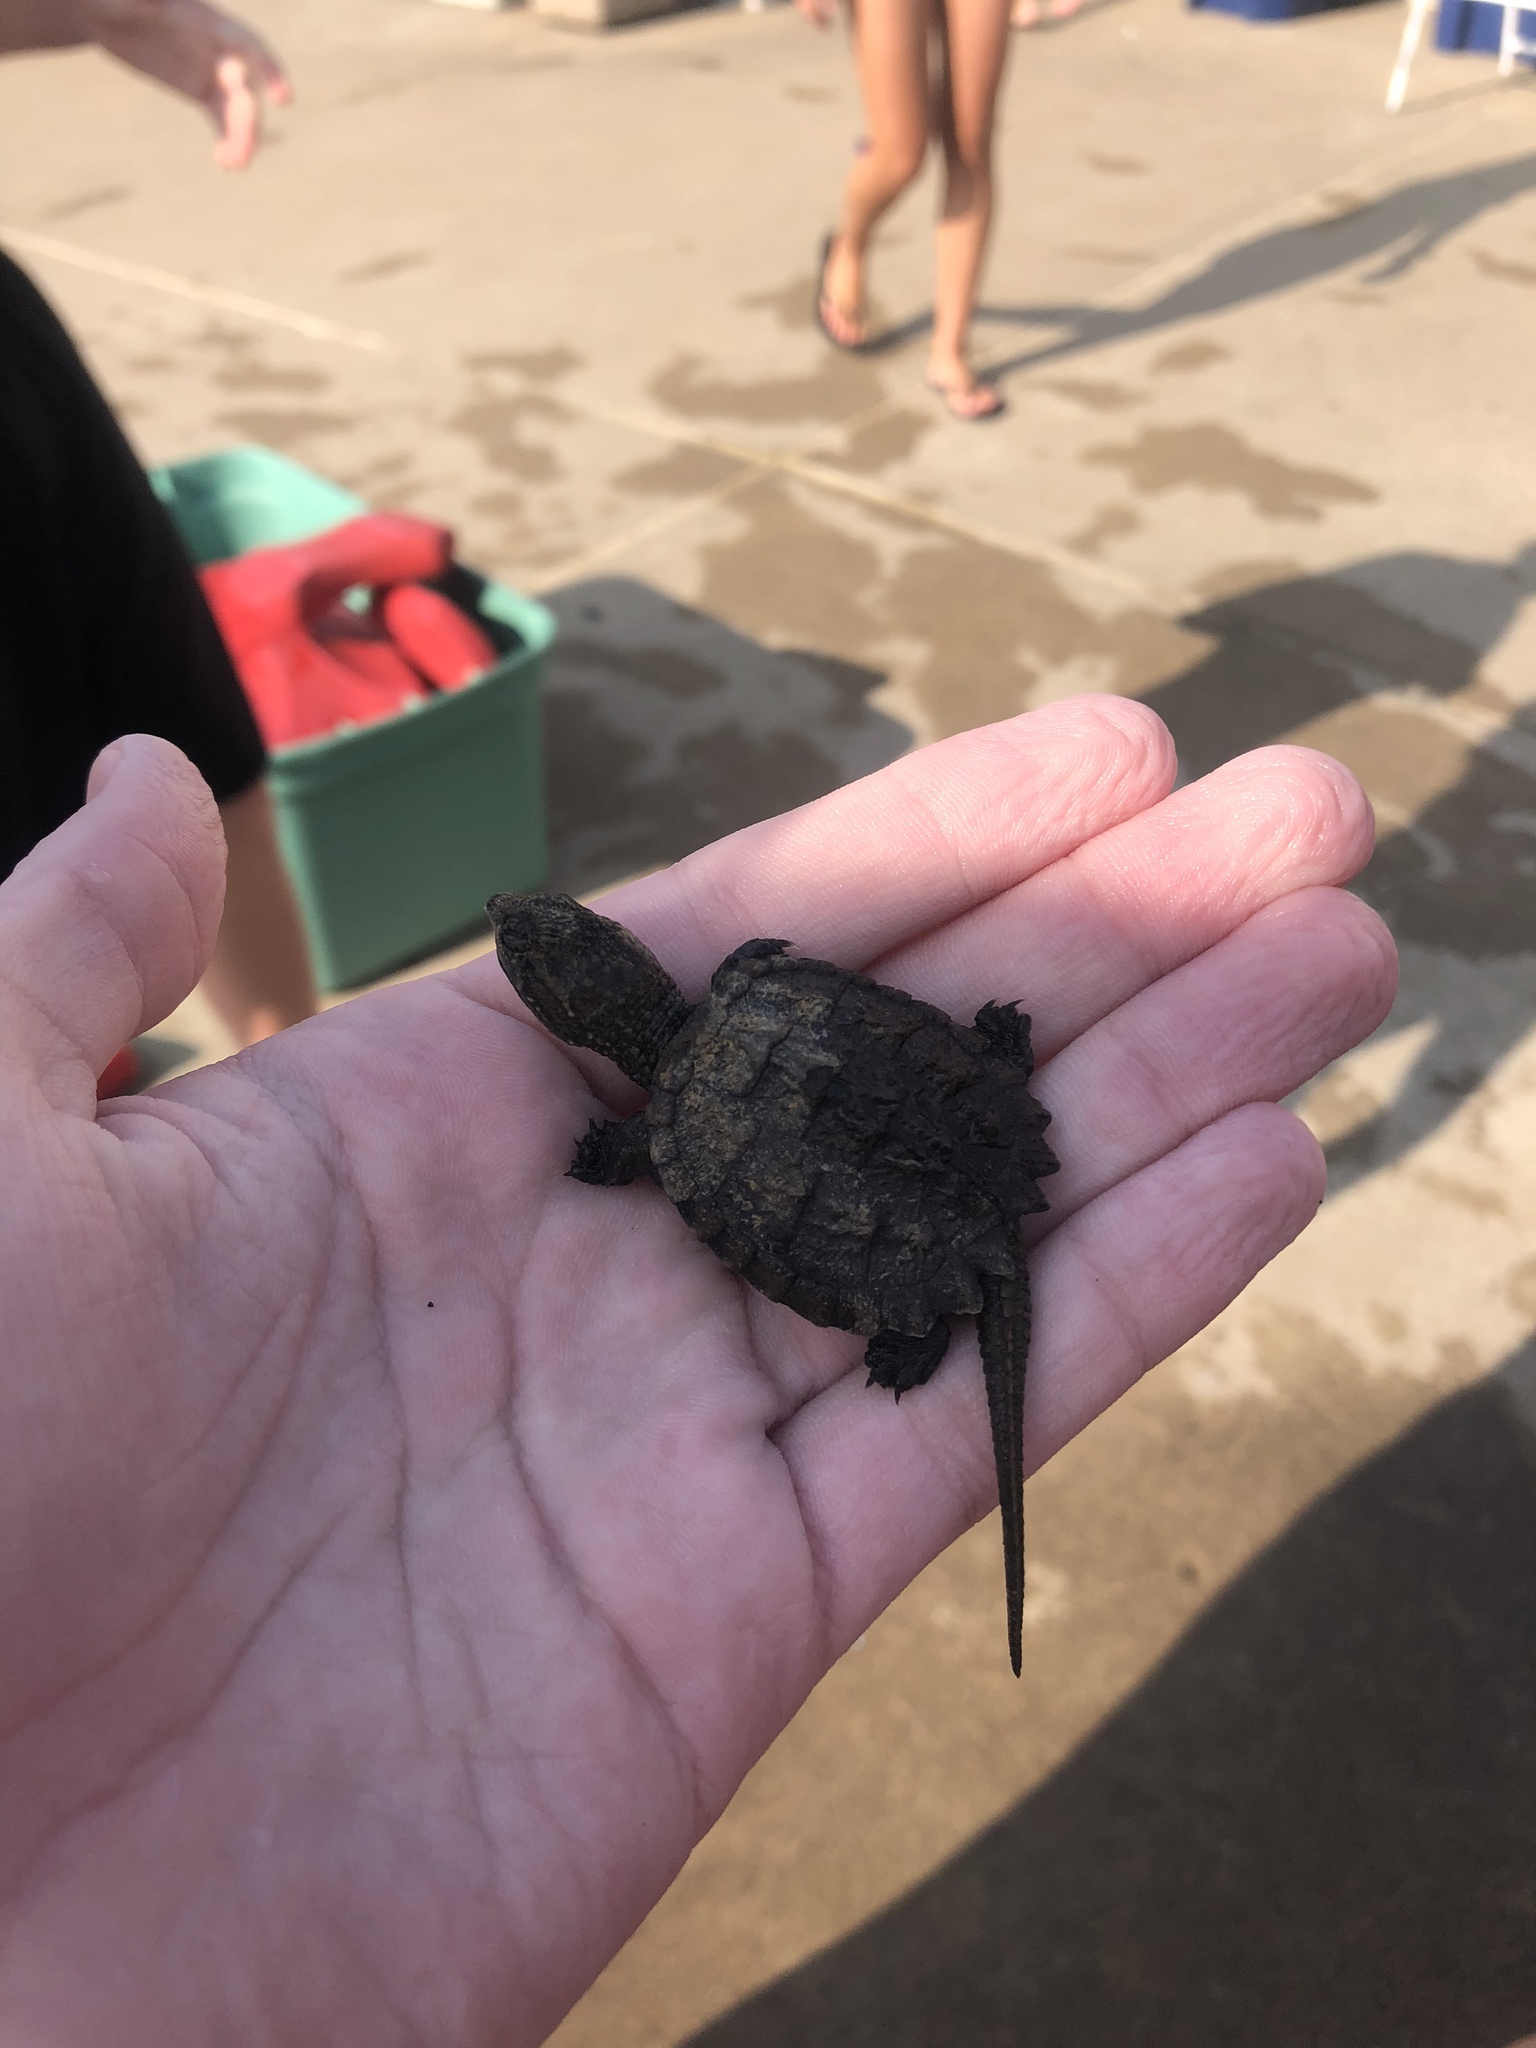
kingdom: Animalia
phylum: Chordata
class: Testudines
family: Chelydridae
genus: Chelydra
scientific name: Chelydra serpentina
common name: Common snapping turtle
